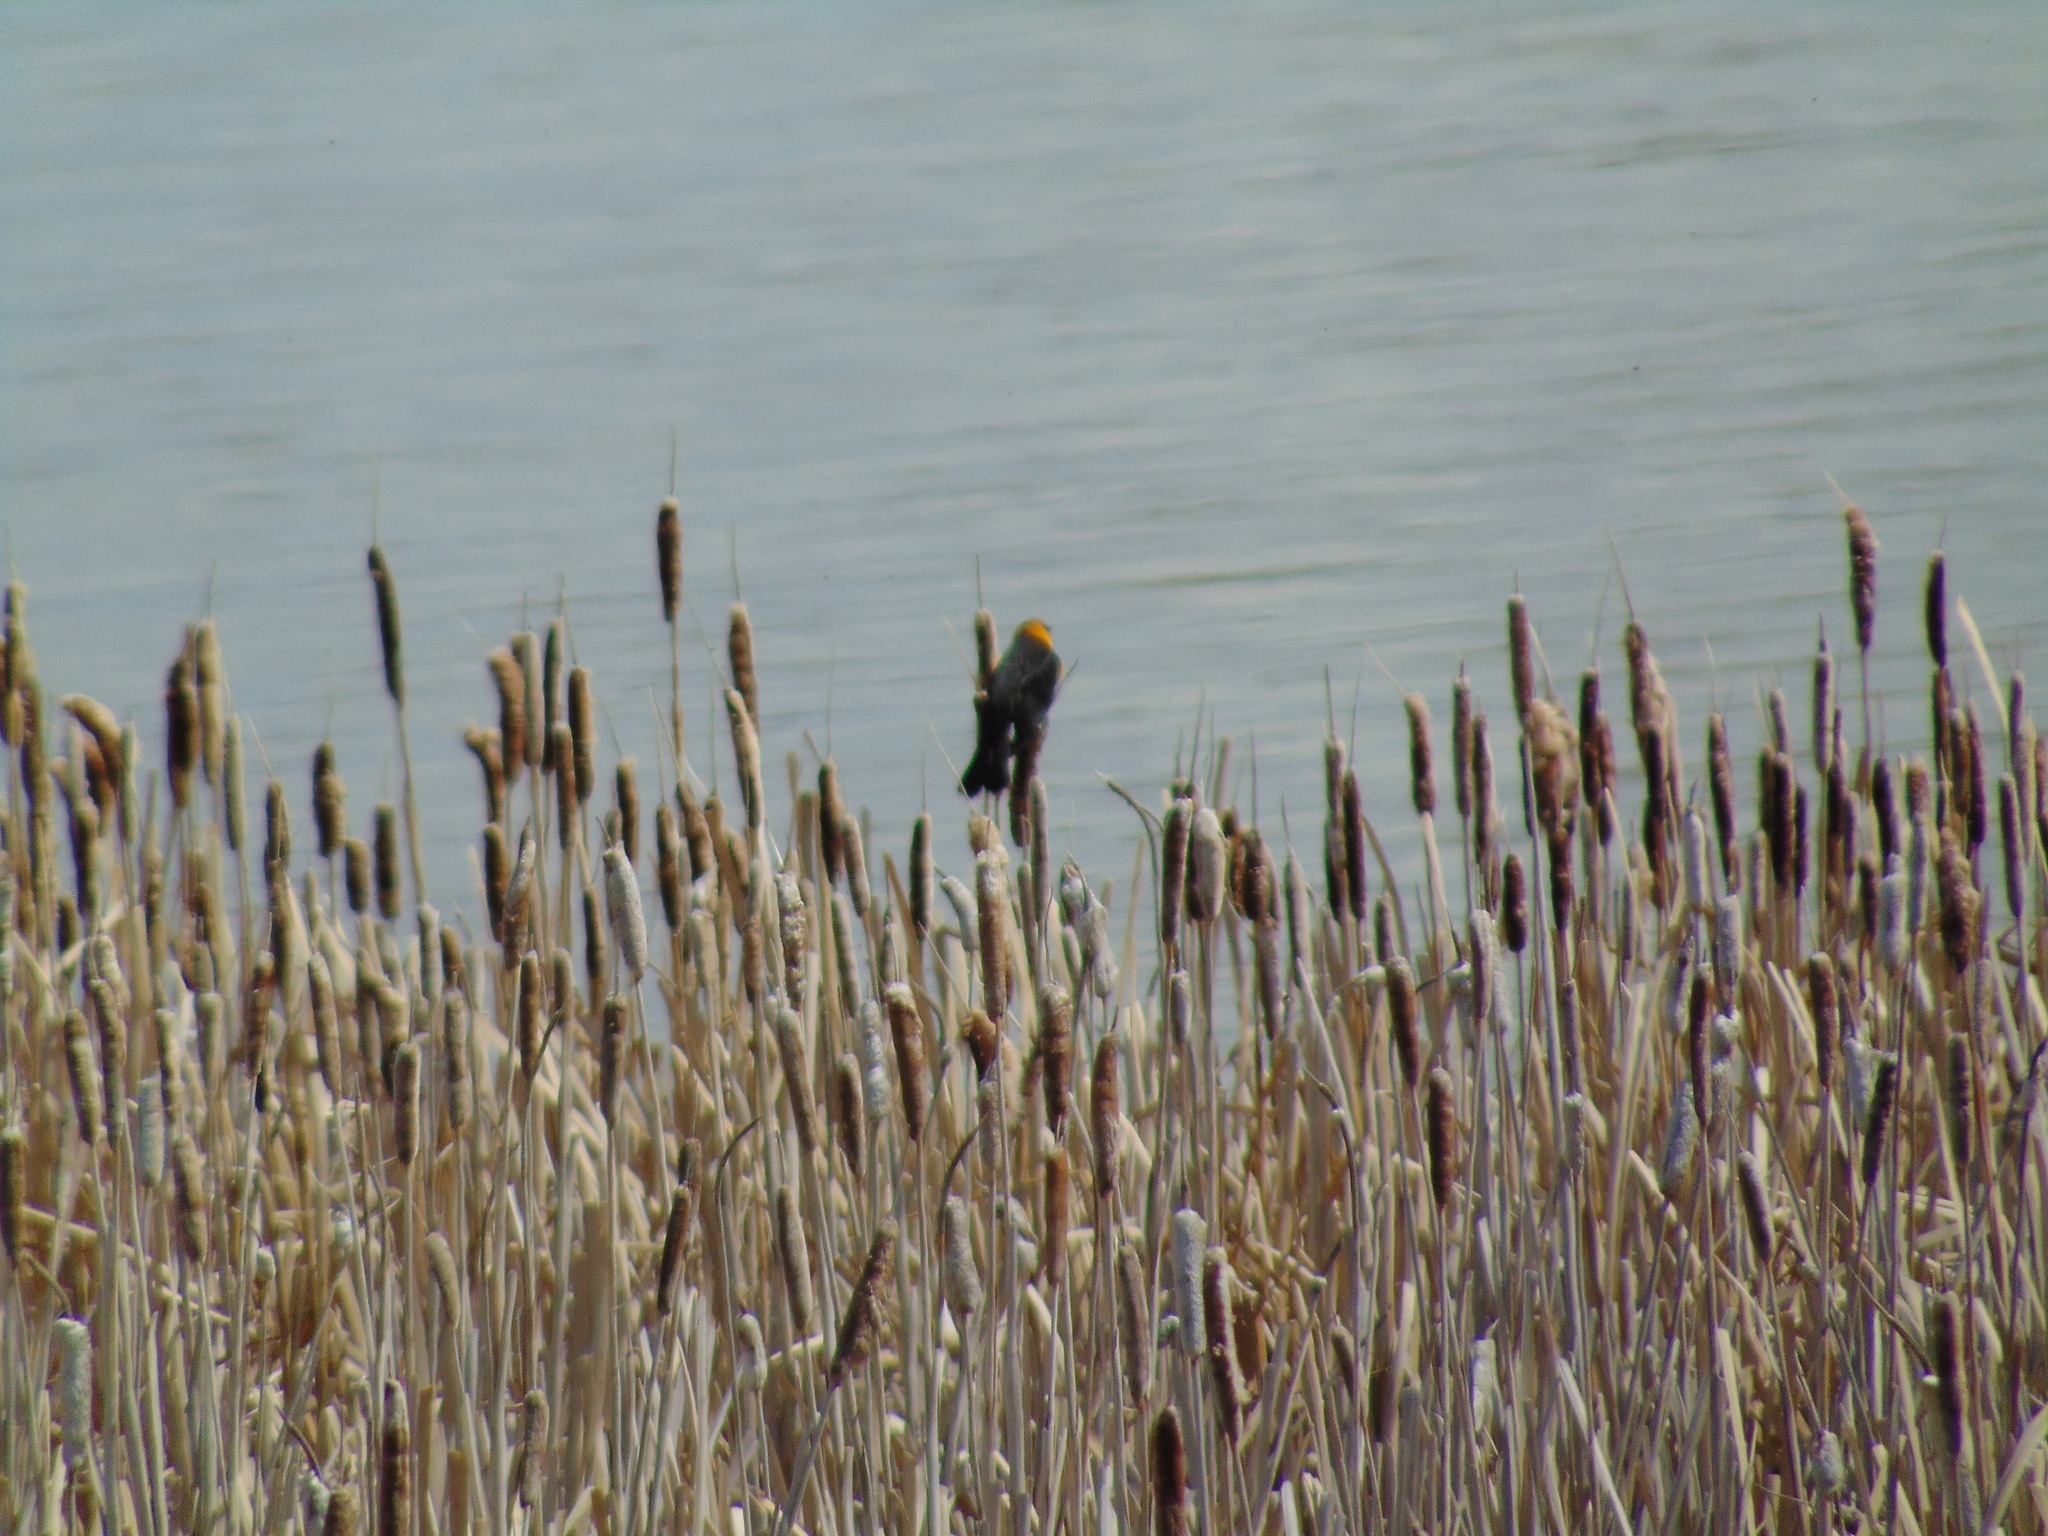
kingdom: Animalia
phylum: Chordata
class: Aves
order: Passeriformes
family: Icteridae
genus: Xanthocephalus
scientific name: Xanthocephalus xanthocephalus
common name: Yellow-headed blackbird
